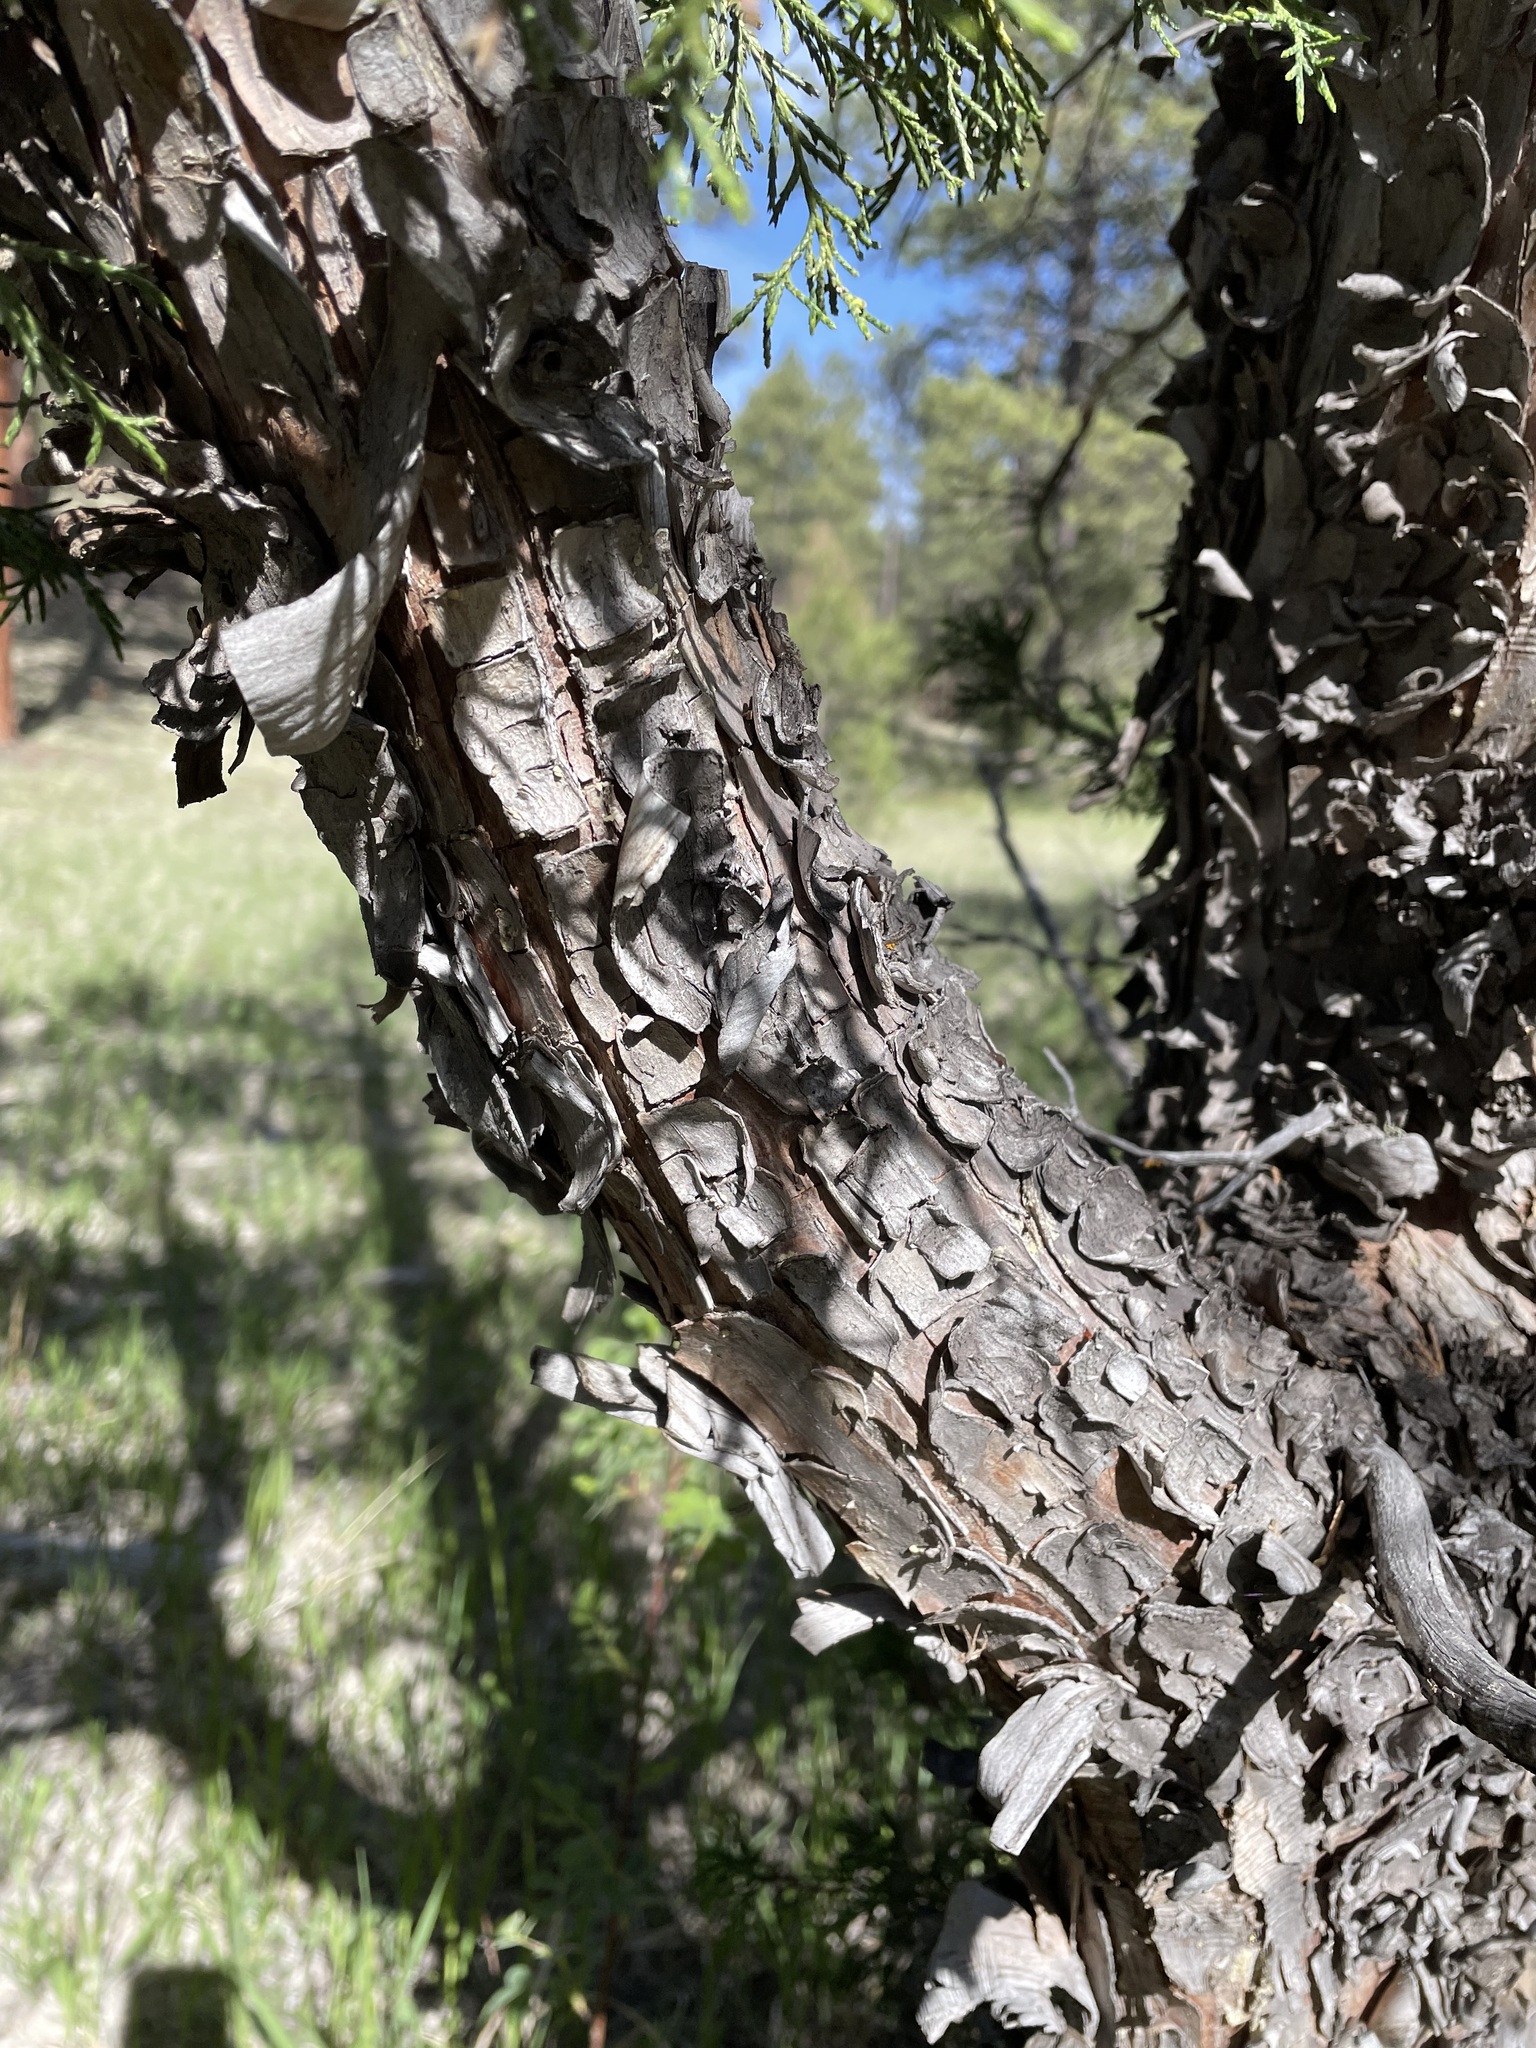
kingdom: Plantae
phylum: Tracheophyta
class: Pinopsida
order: Pinales
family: Cupressaceae
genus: Juniperus
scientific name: Juniperus scopulorum
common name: Rocky mountain juniper
